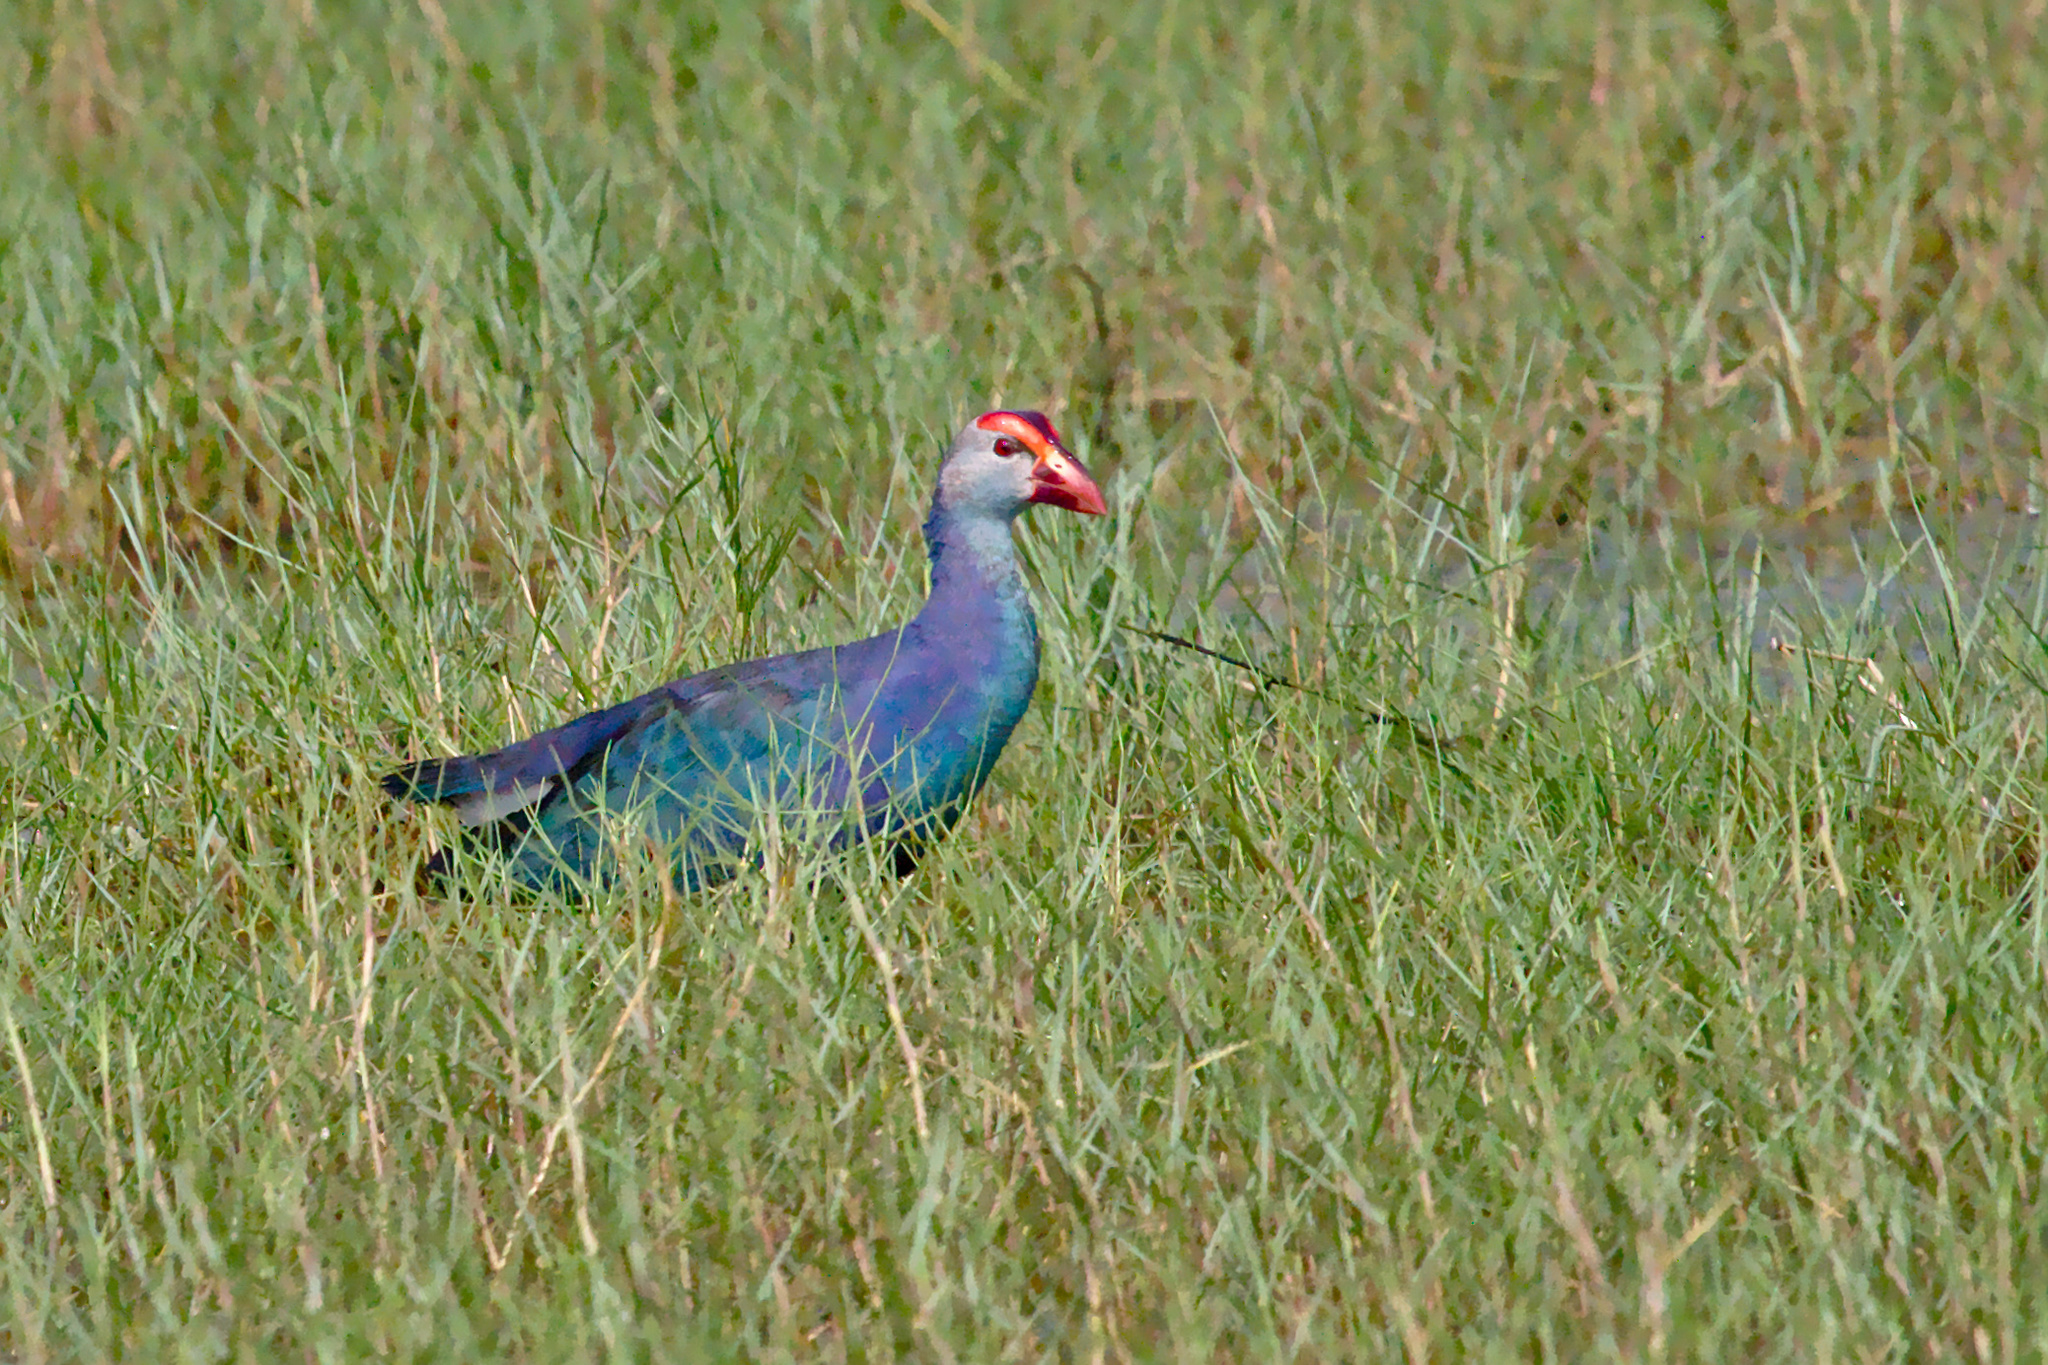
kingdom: Animalia
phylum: Chordata
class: Aves
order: Gruiformes
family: Rallidae
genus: Porphyrio
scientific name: Porphyrio porphyrio
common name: Purple swamphen
